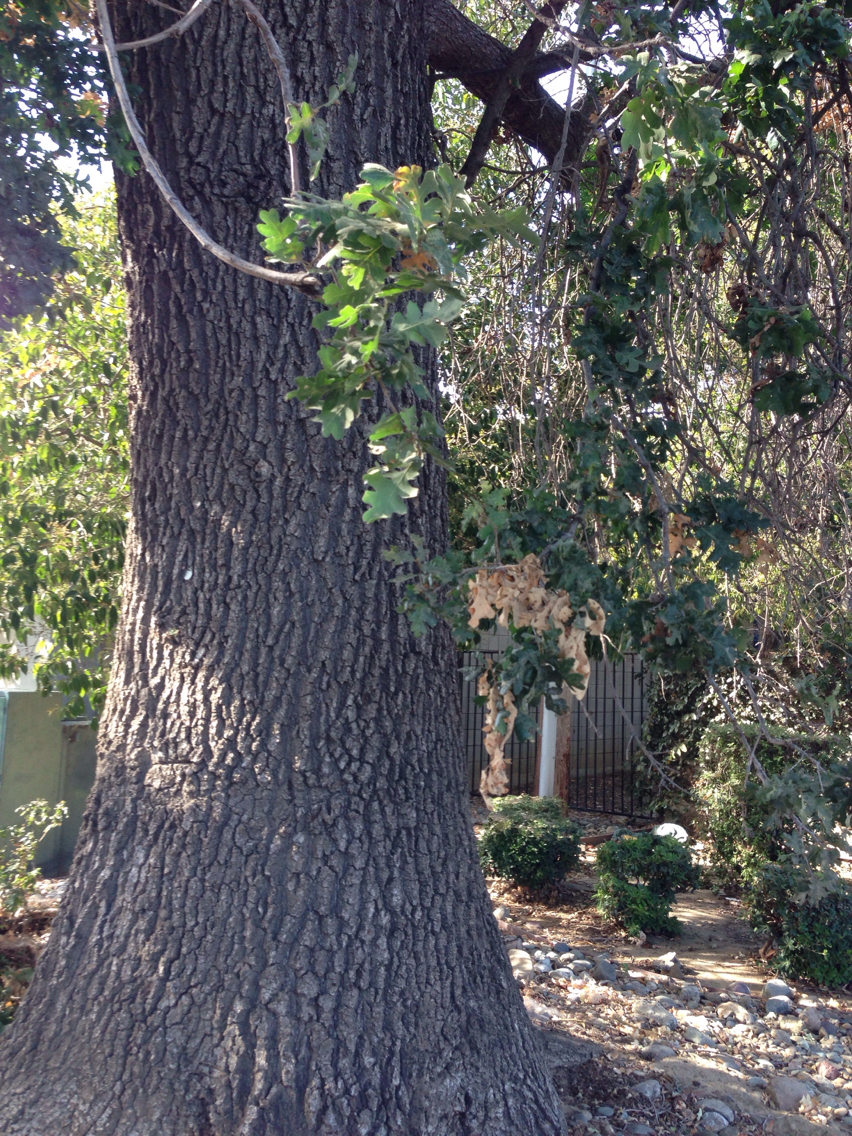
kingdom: Plantae
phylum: Tracheophyta
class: Magnoliopsida
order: Fagales
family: Fagaceae
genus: Quercus
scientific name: Quercus lobata
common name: Valley oak
